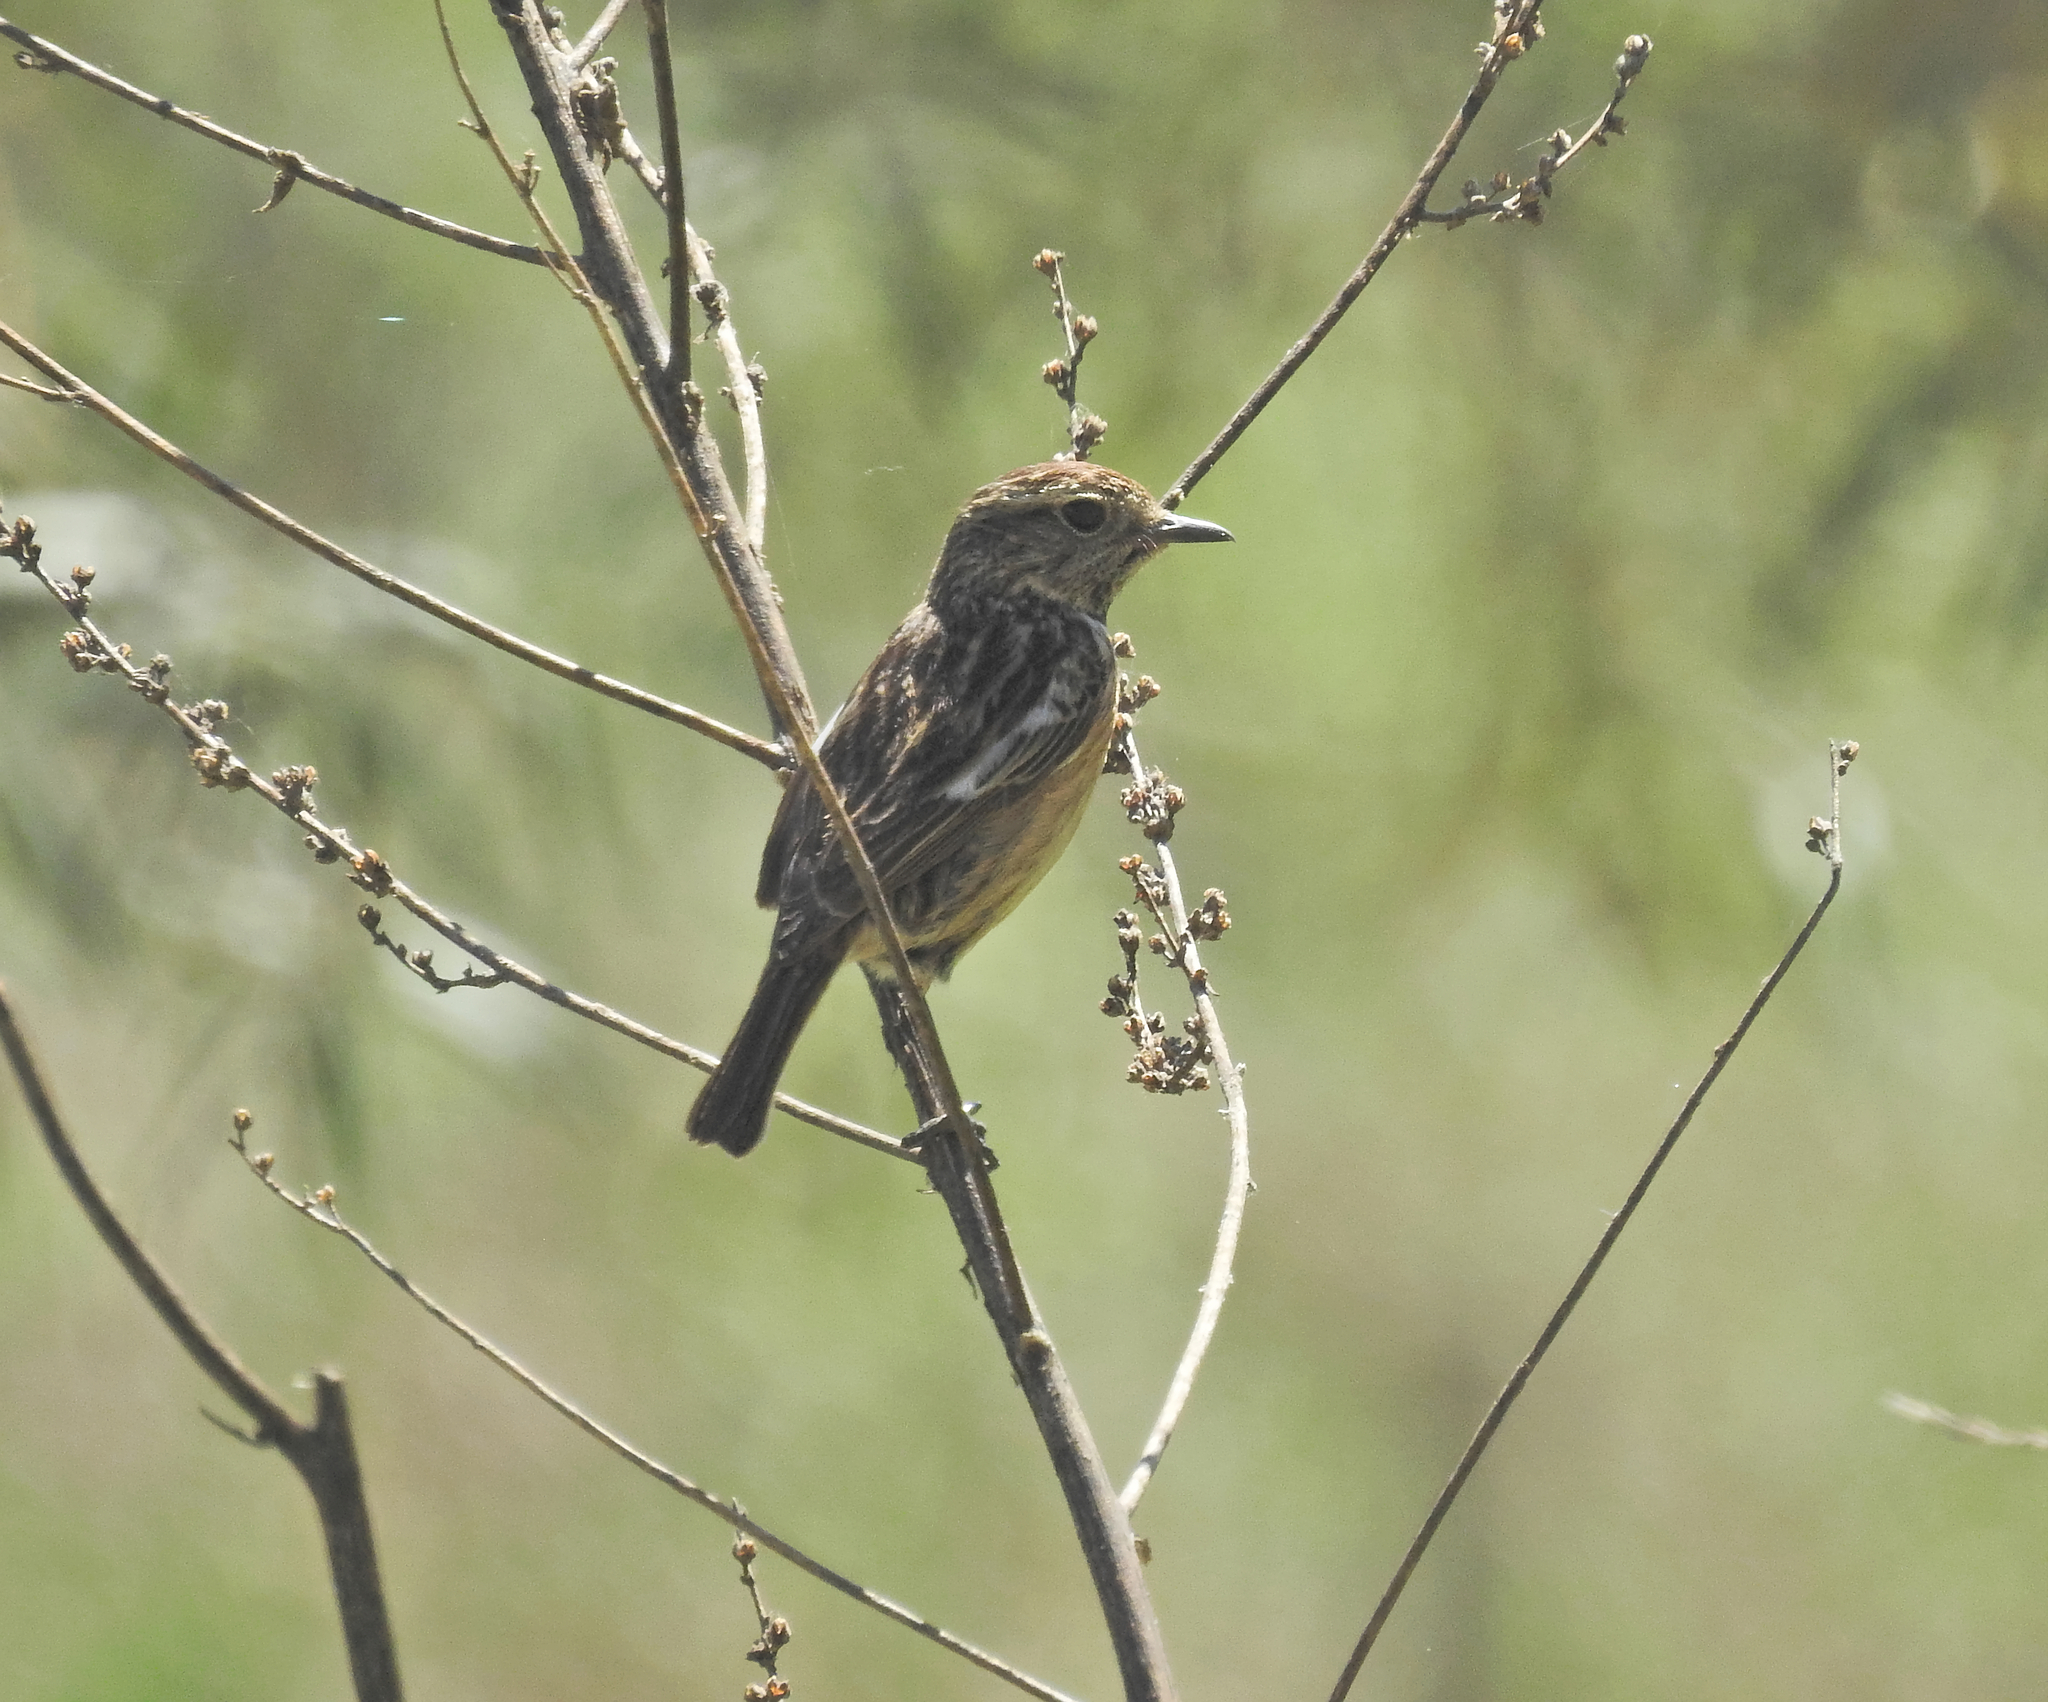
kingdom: Animalia
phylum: Chordata
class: Aves
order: Passeriformes
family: Muscicapidae
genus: Saxicola
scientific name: Saxicola rubicola
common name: European stonechat
